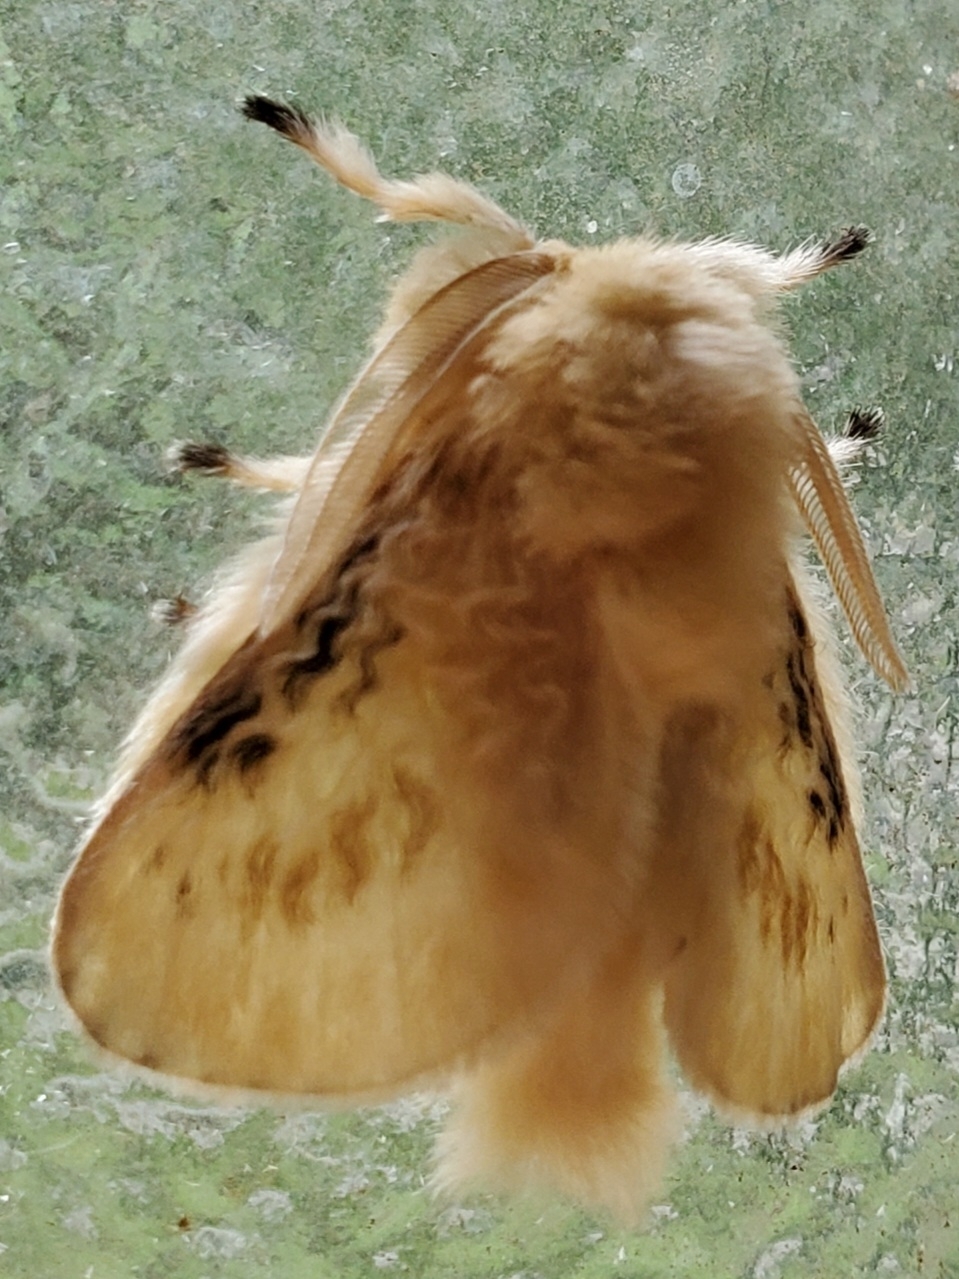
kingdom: Animalia
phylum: Arthropoda
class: Insecta
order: Lepidoptera
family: Megalopygidae
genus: Megalopyge
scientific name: Megalopyge crispata
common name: Black-waved flannel moth
